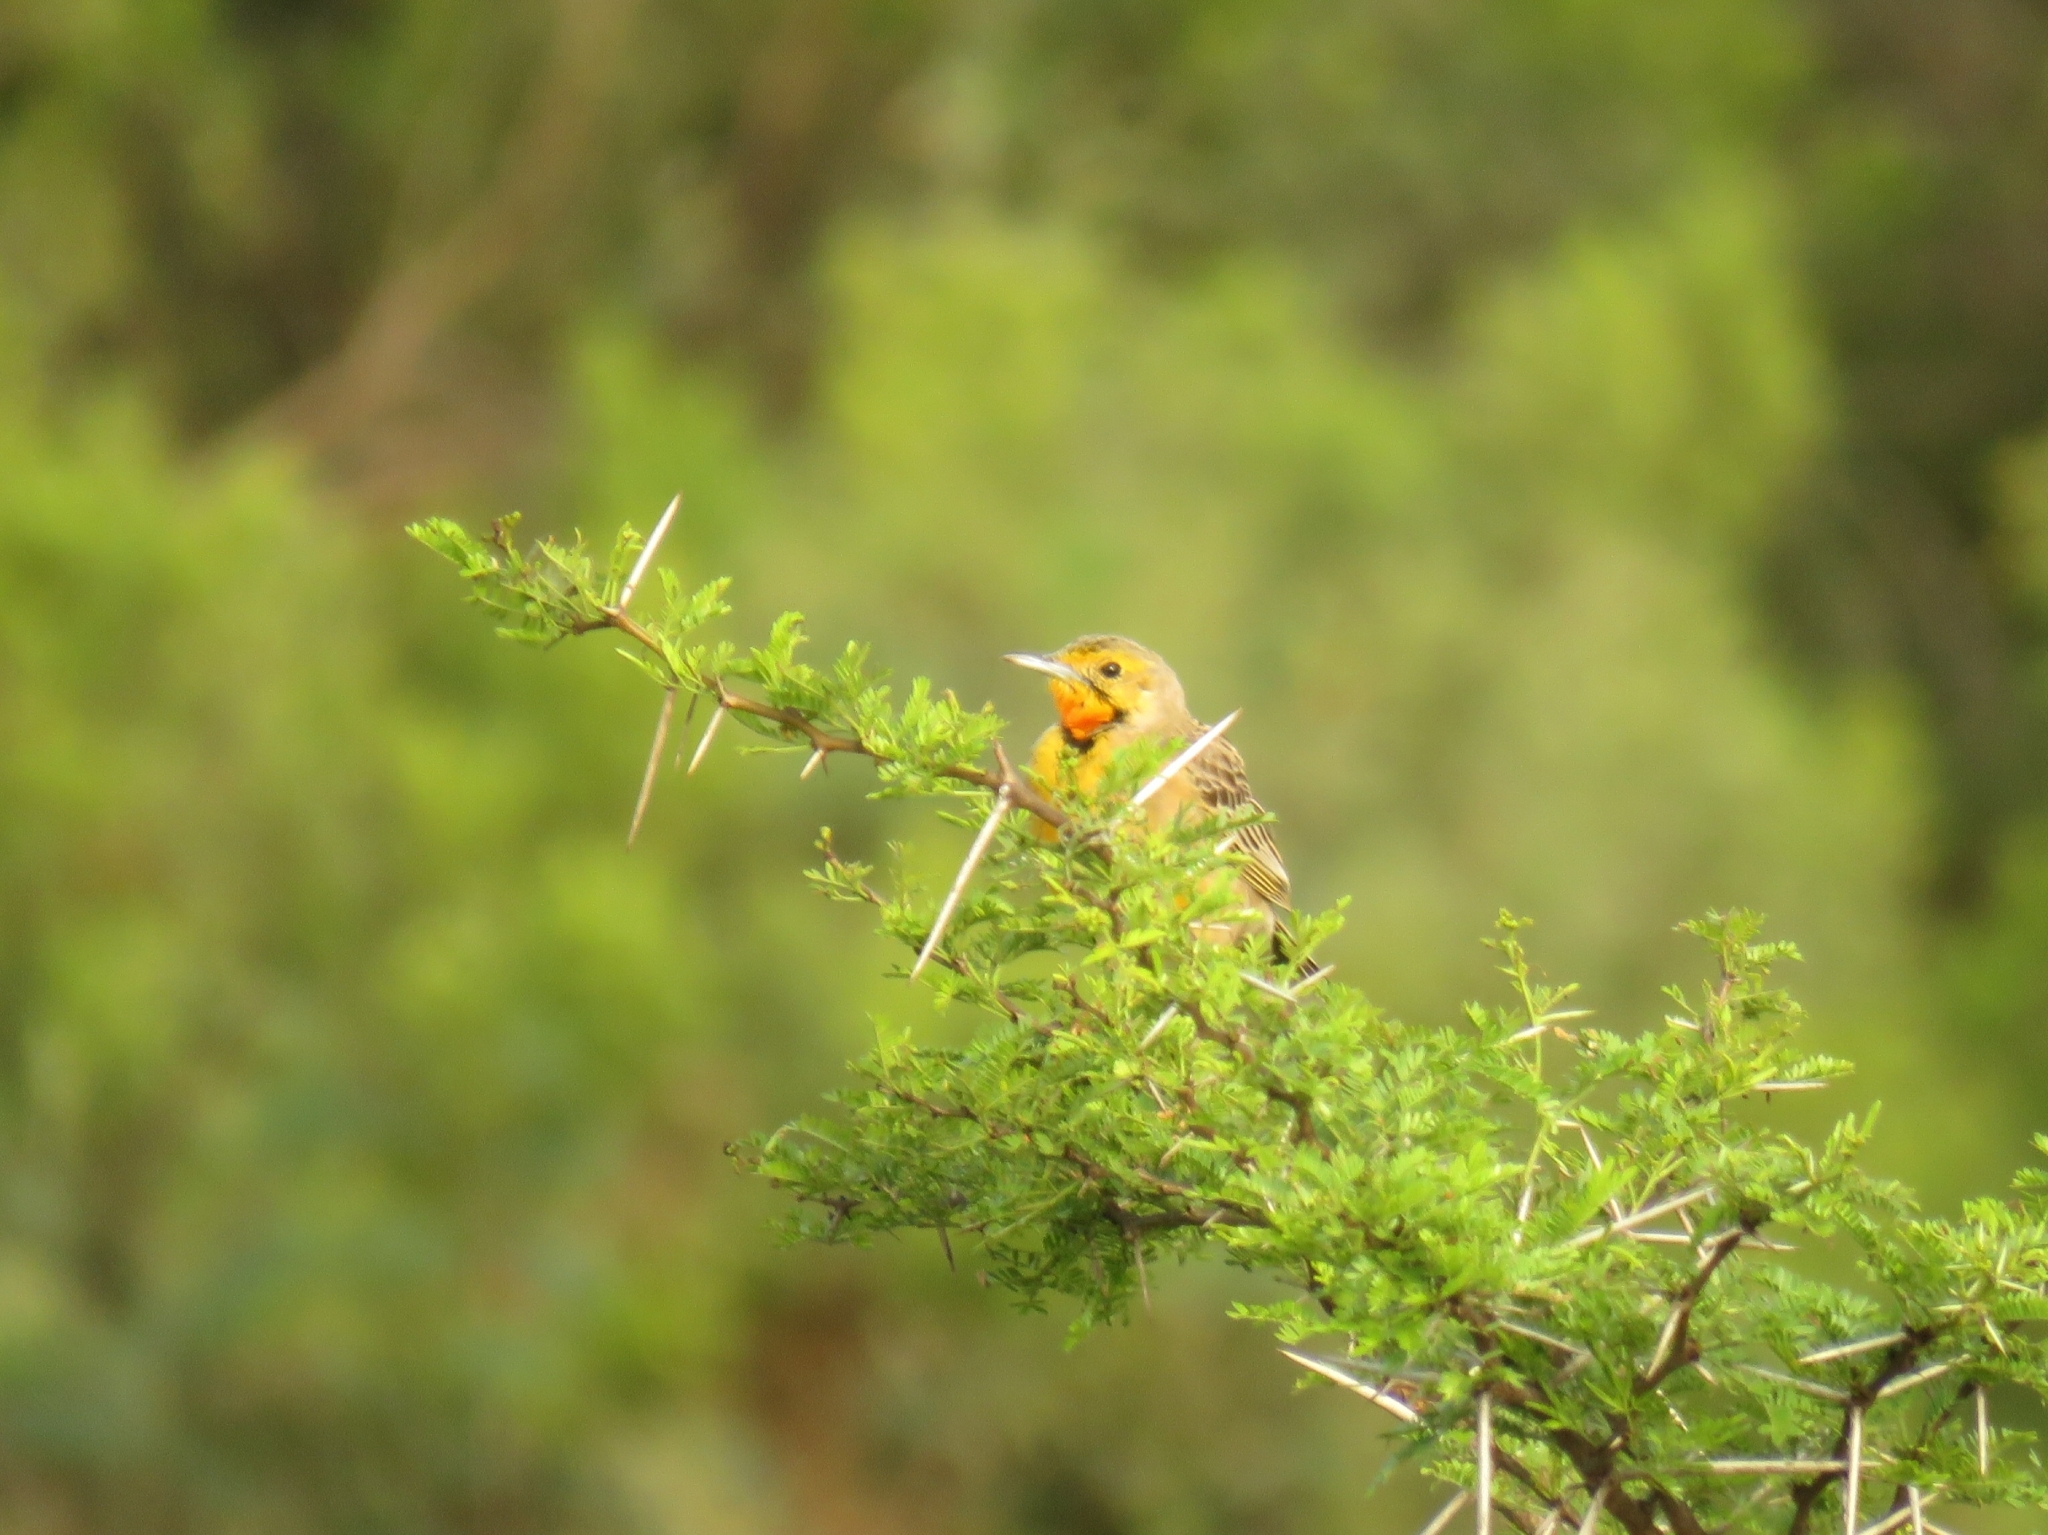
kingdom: Animalia
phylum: Chordata
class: Aves
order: Passeriformes
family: Motacillidae
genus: Macronyx
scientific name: Macronyx capensis
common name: Cape longclaw
